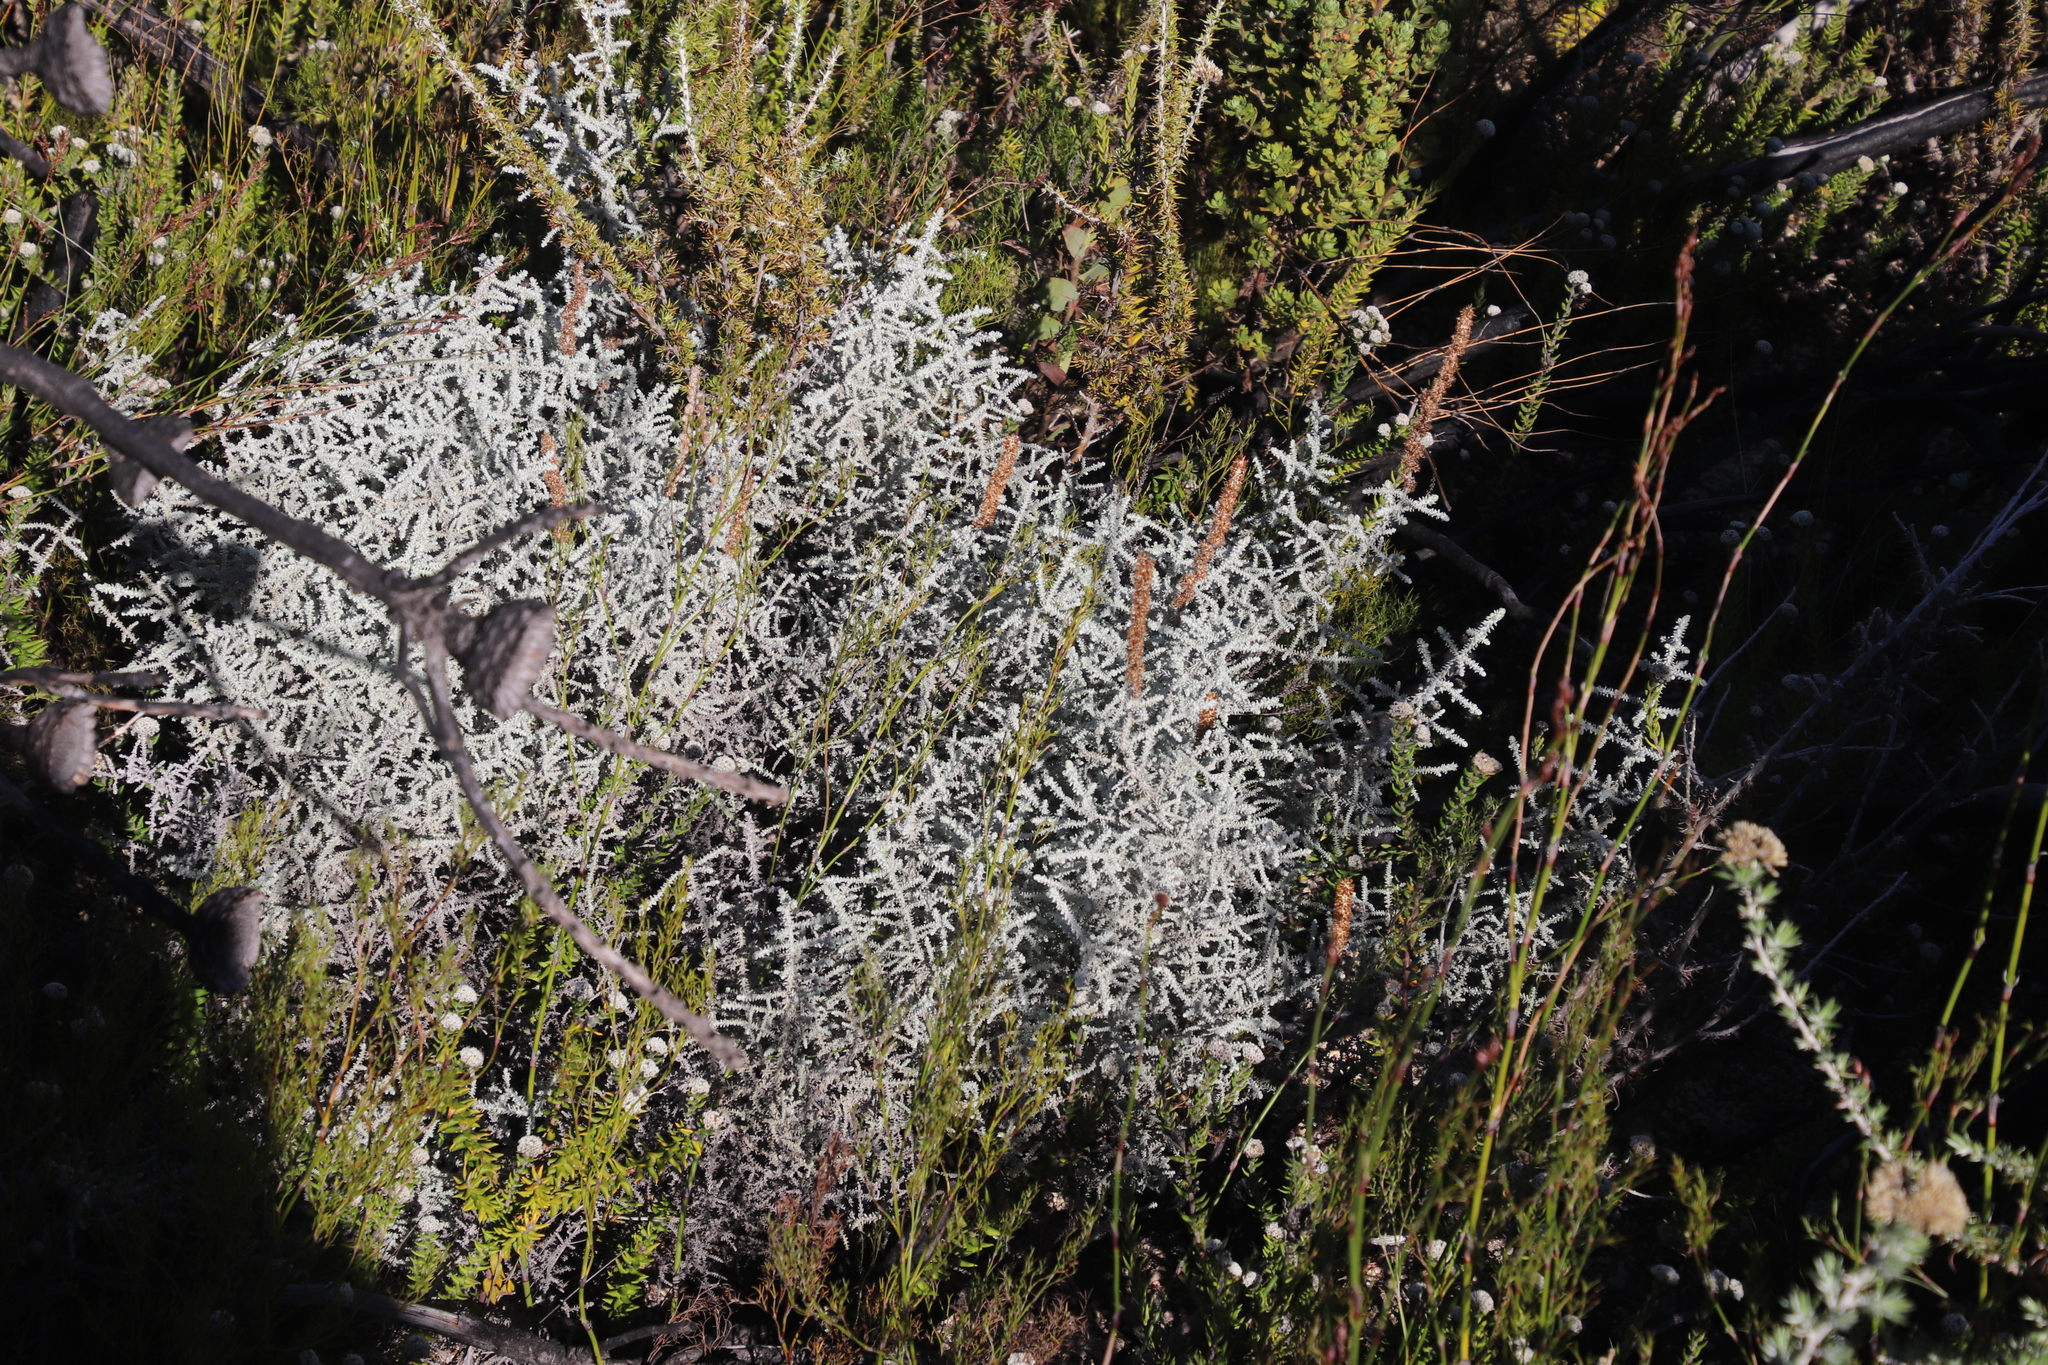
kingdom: Plantae
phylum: Tracheophyta
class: Magnoliopsida
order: Asterales
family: Asteraceae
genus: Seriphium
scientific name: Seriphium plumosum
